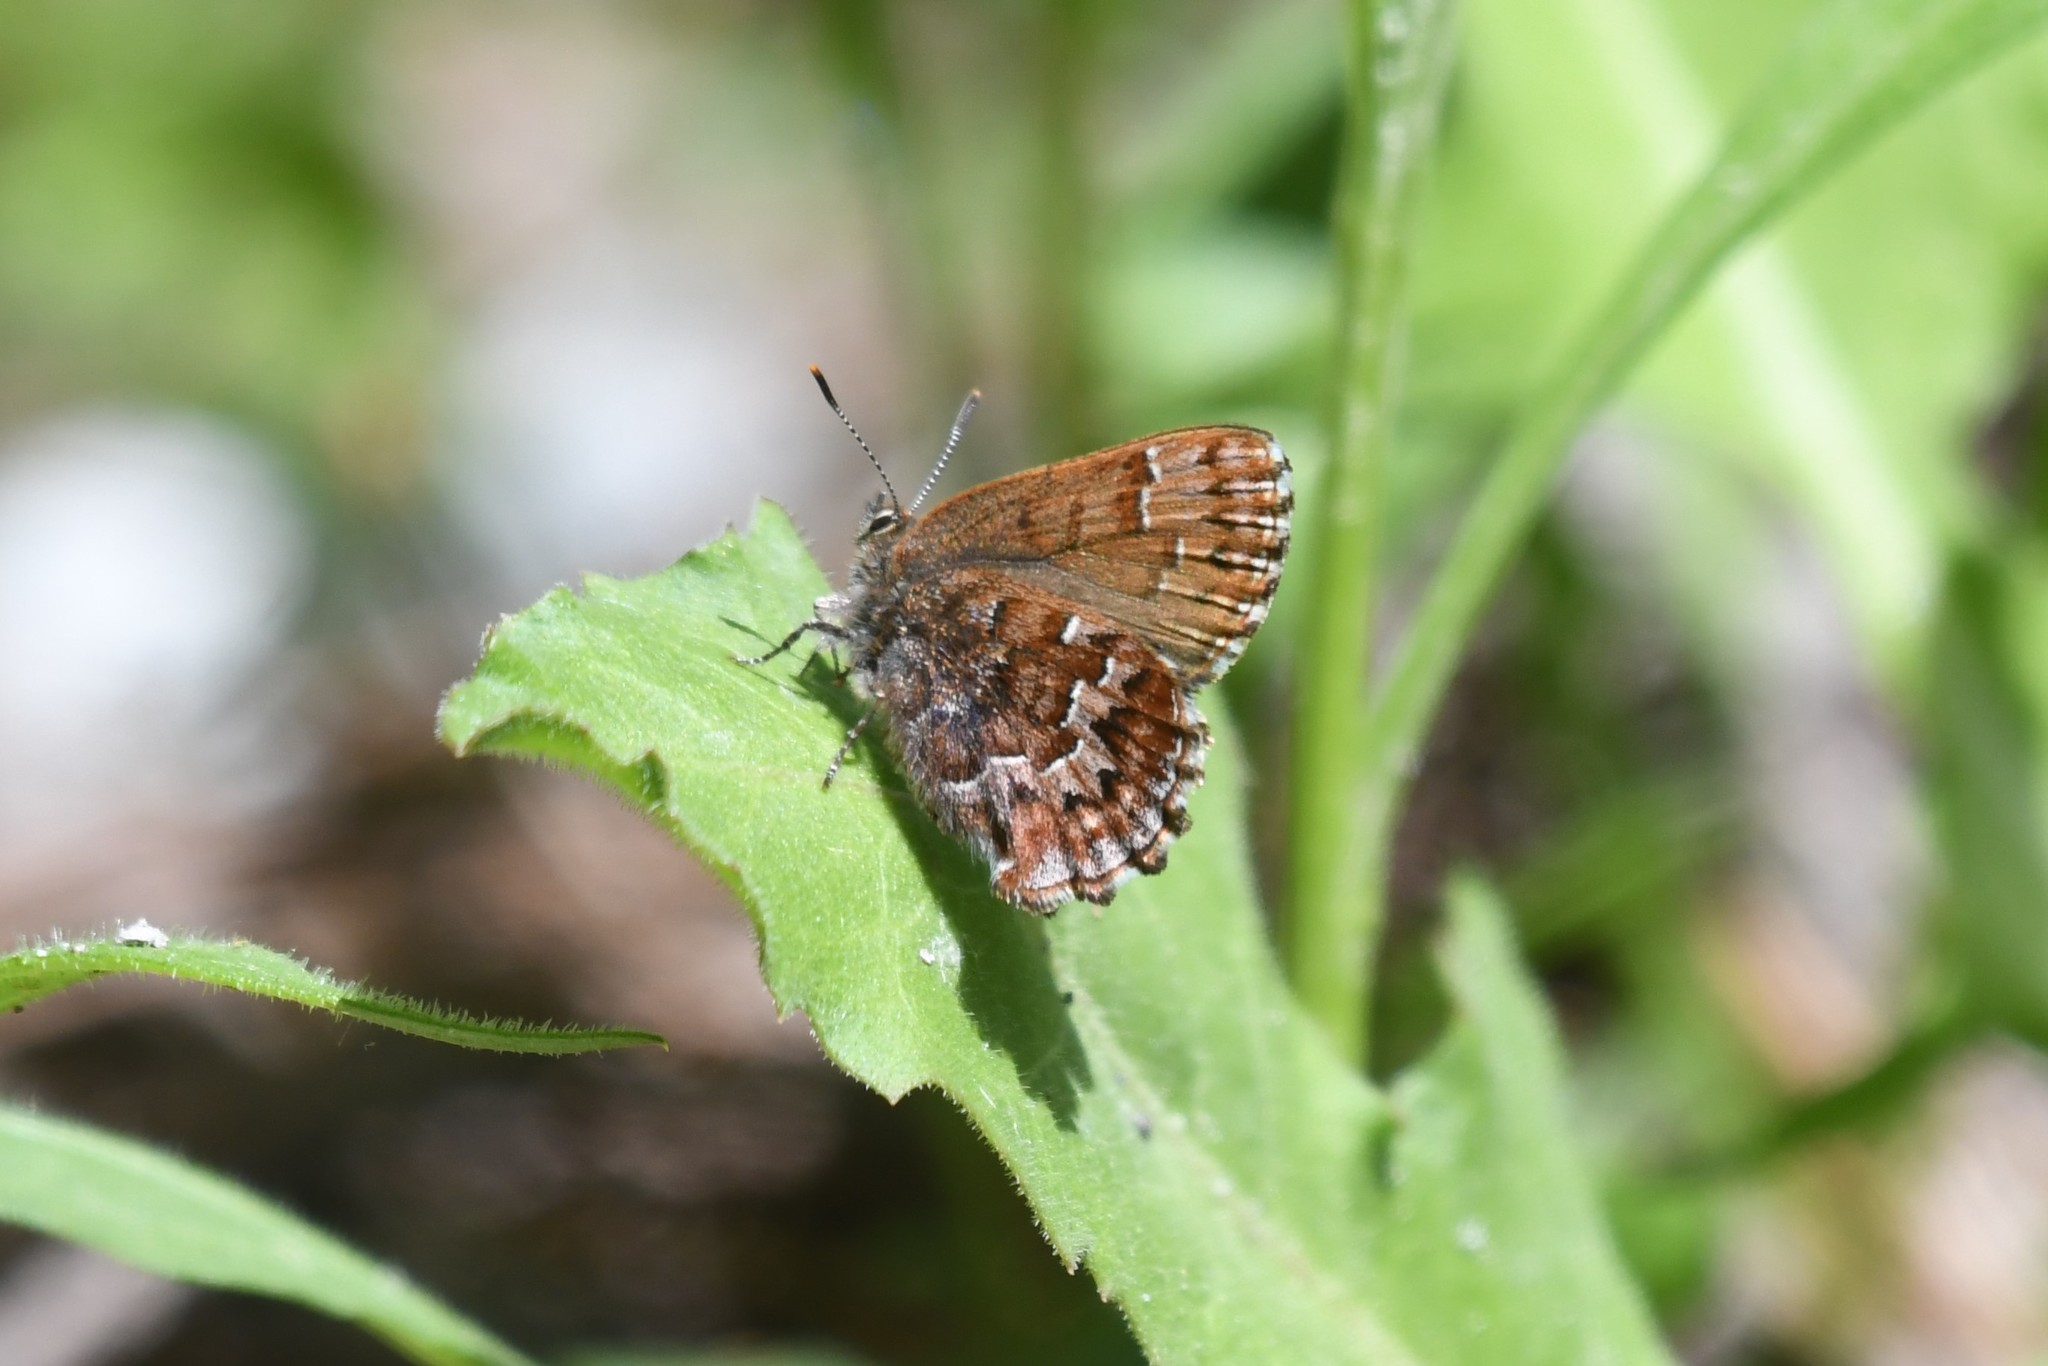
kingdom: Animalia
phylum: Arthropoda
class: Insecta
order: Lepidoptera
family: Lycaenidae
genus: Incisalia
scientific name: Incisalia niphon
